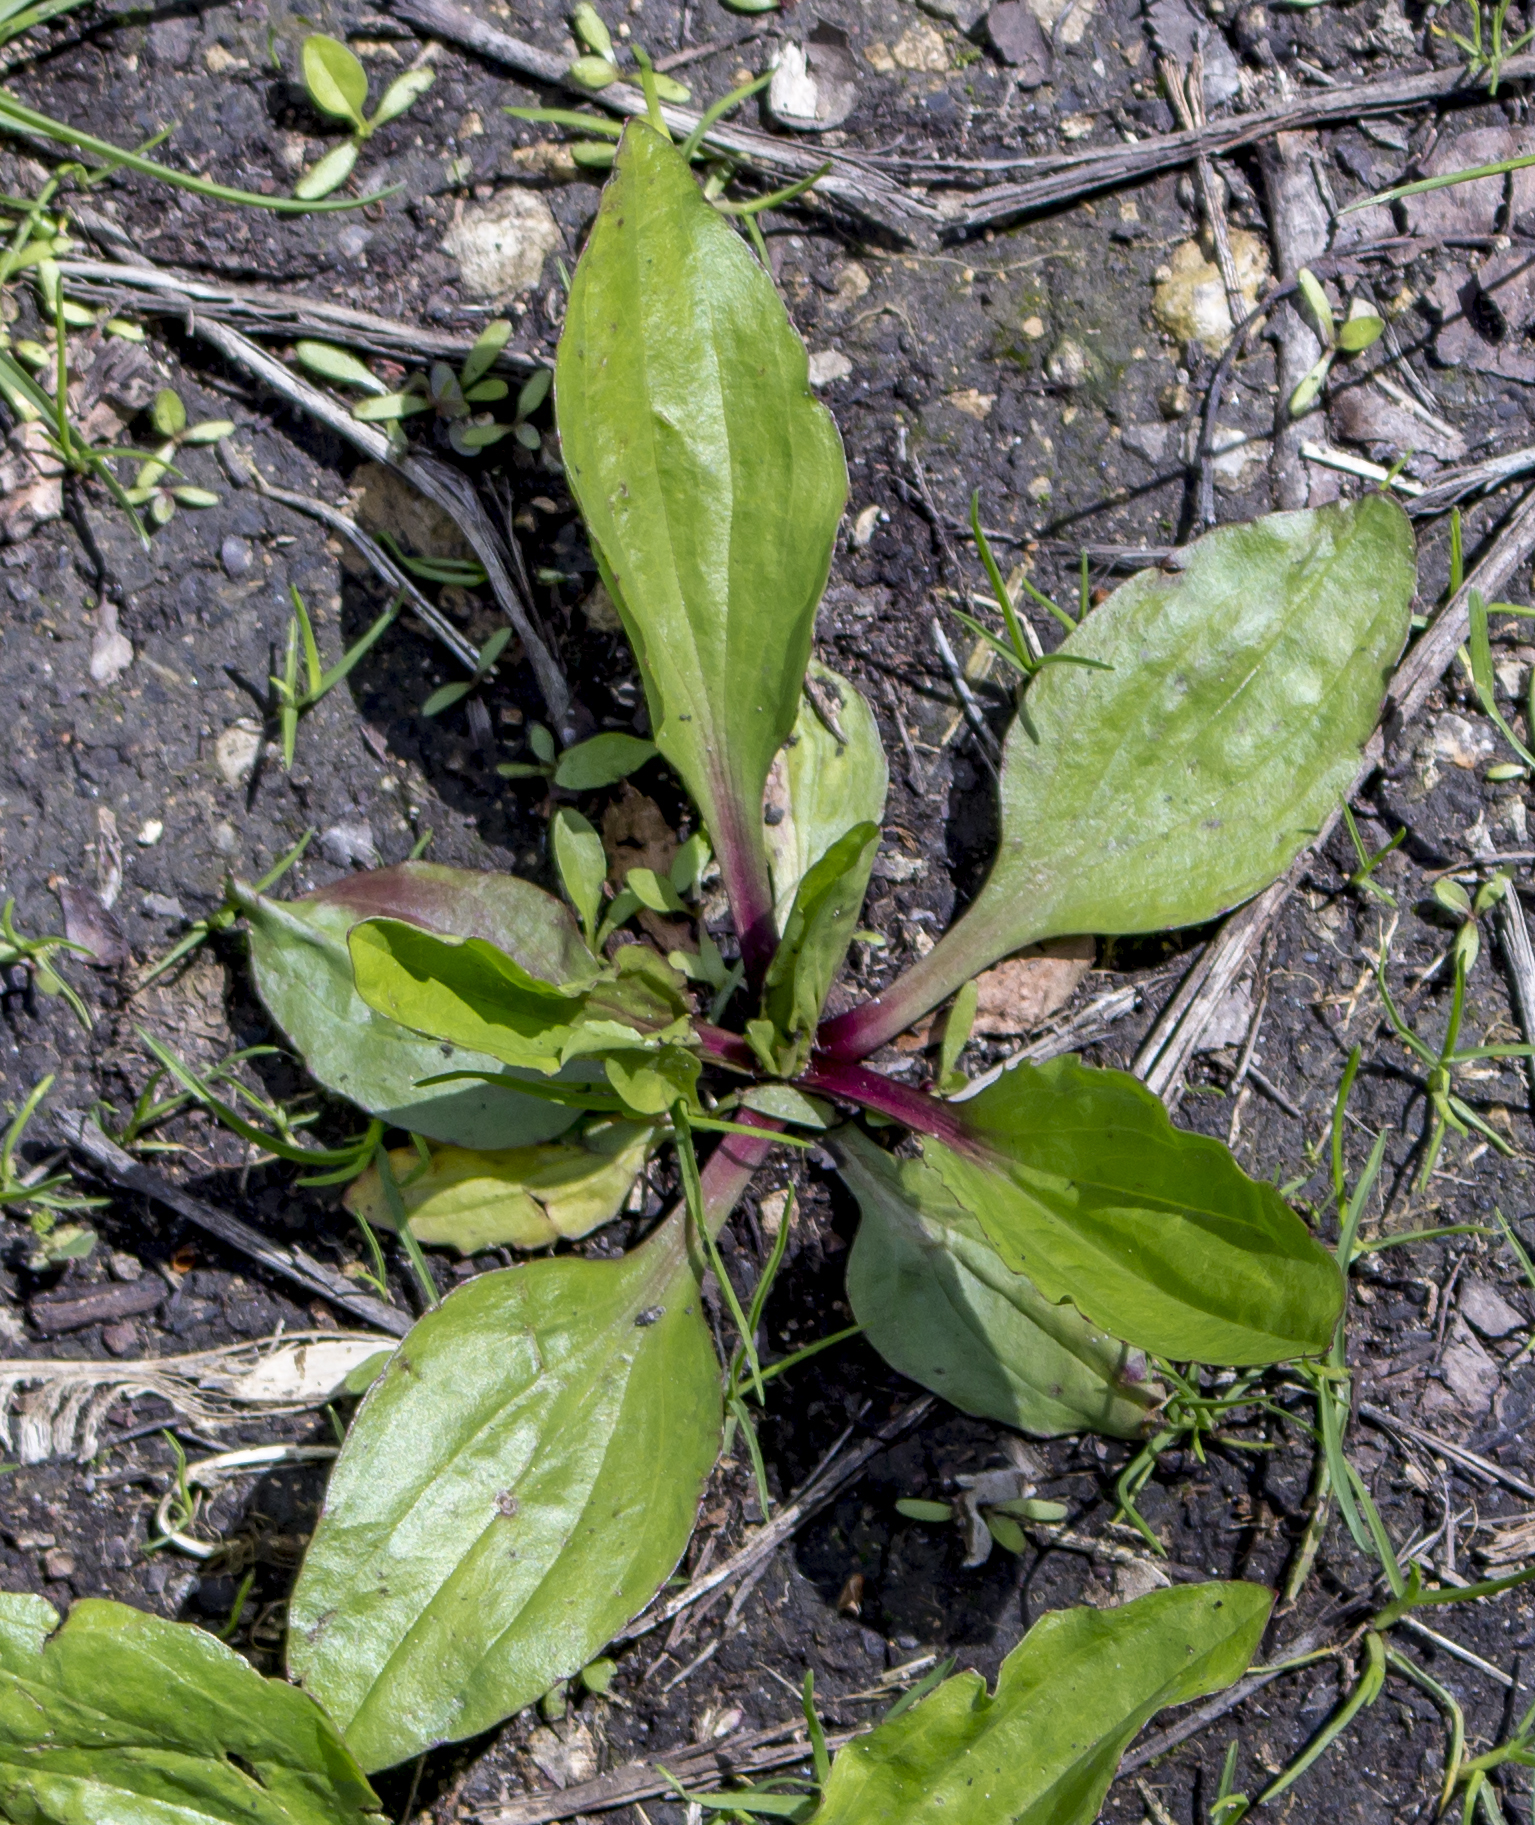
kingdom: Plantae
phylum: Tracheophyta
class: Magnoliopsida
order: Lamiales
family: Plantaginaceae
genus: Plantago
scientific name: Plantago rugelii
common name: American plantain
